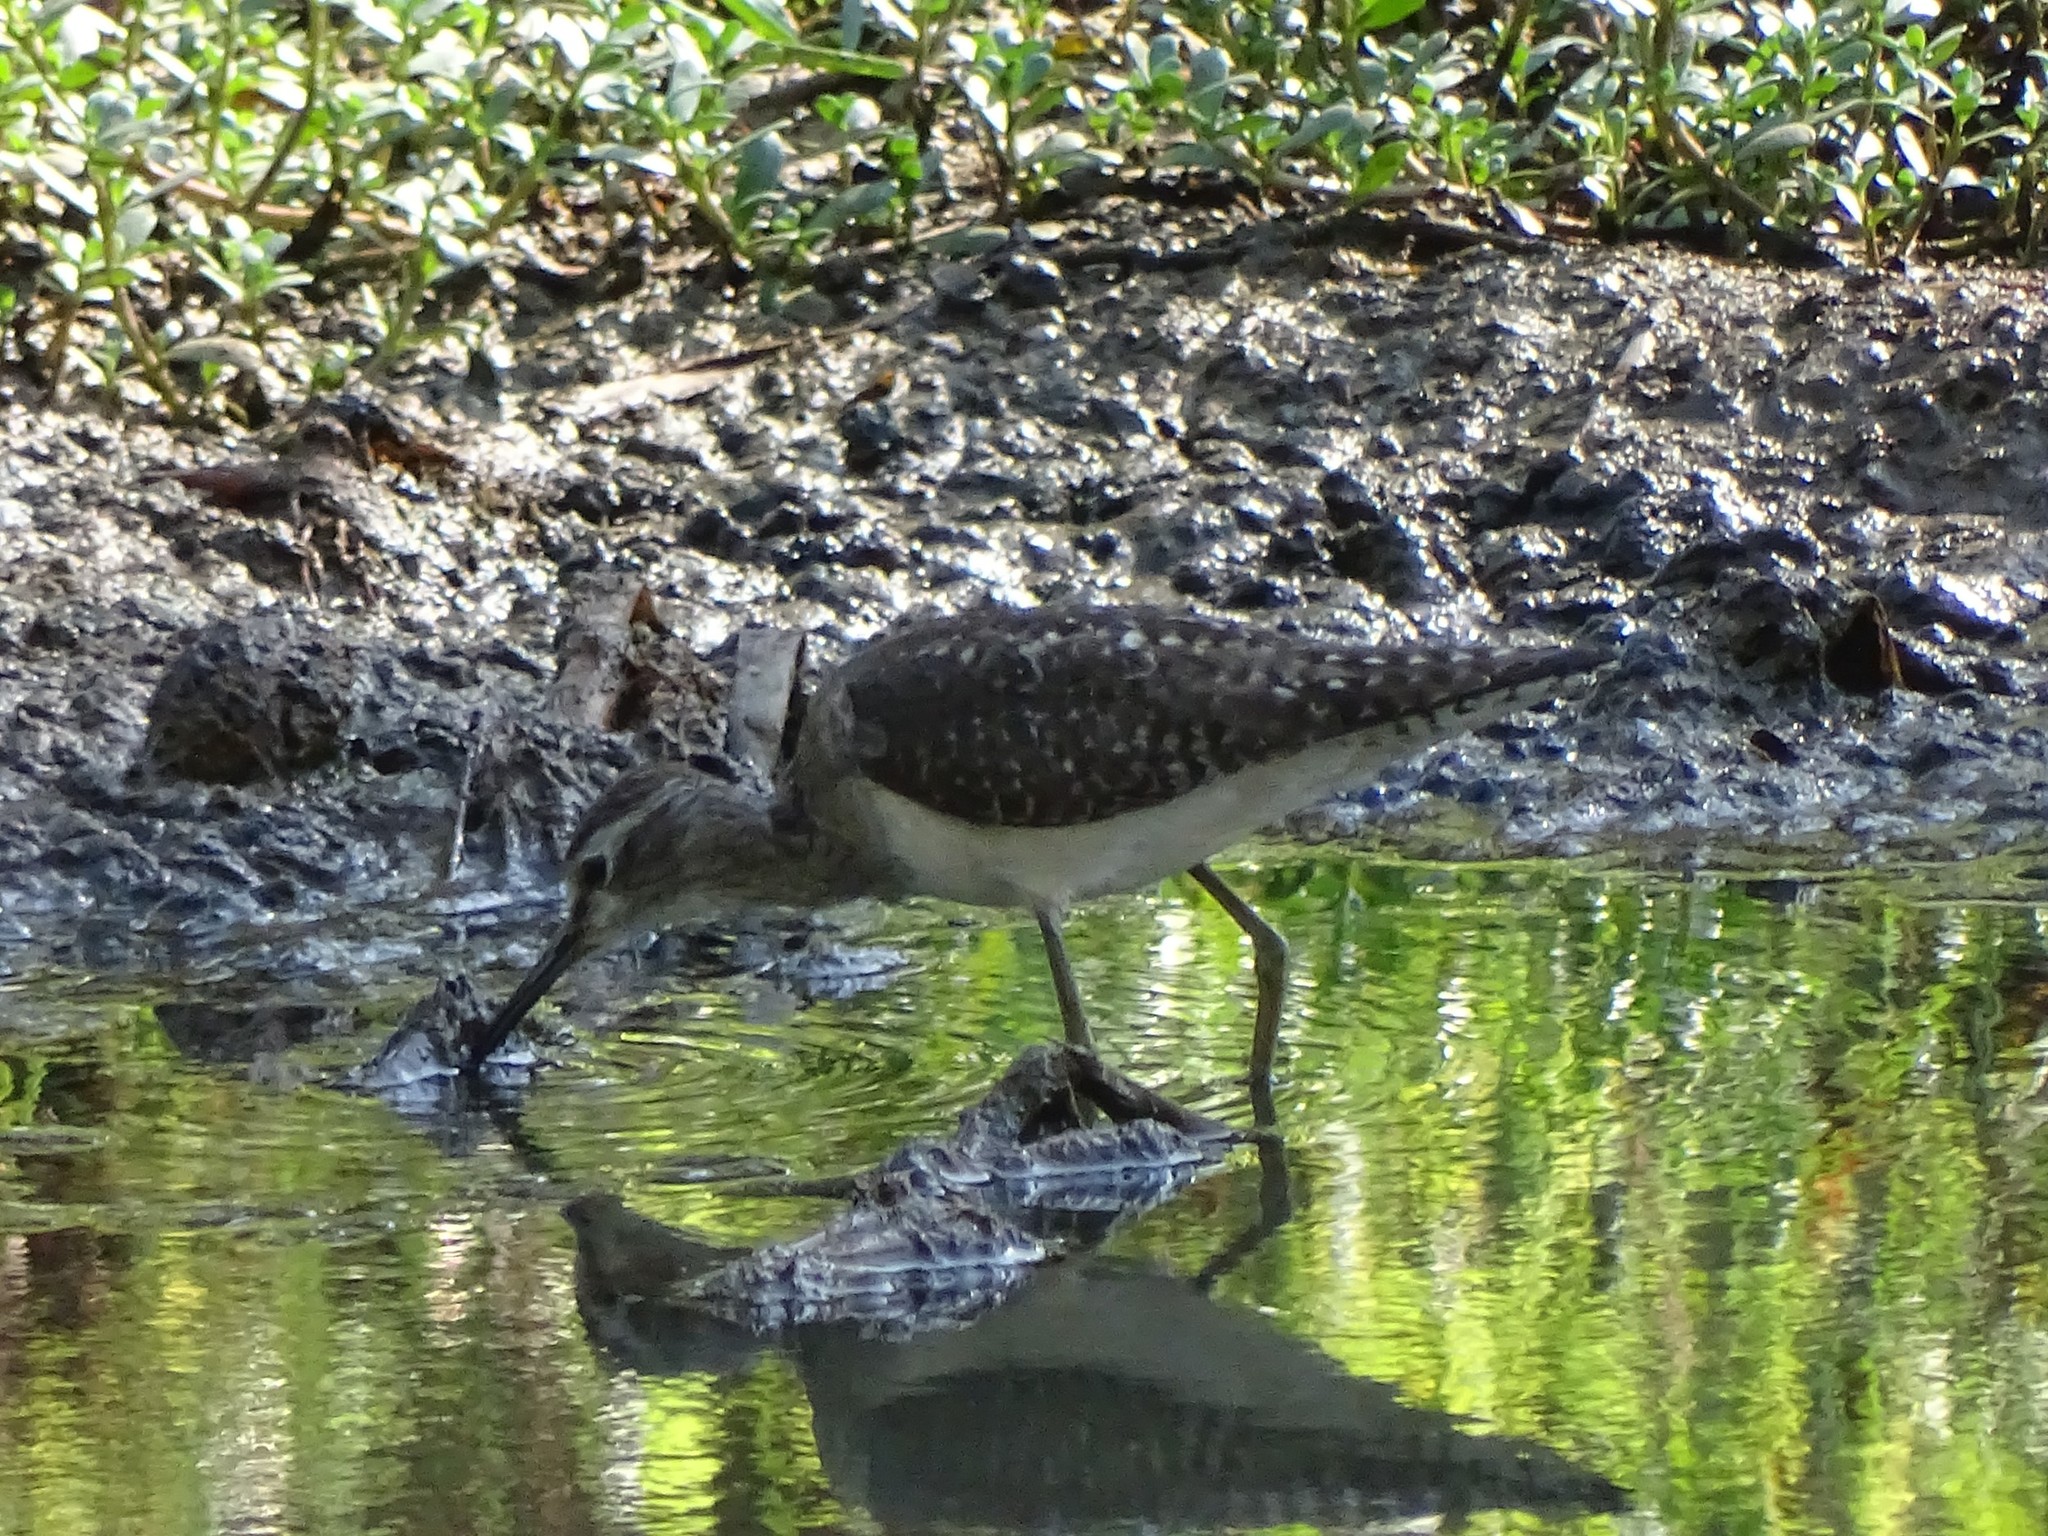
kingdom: Animalia
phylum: Chordata
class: Aves
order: Charadriiformes
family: Scolopacidae
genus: Tringa
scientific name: Tringa glareola
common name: Wood sandpiper
